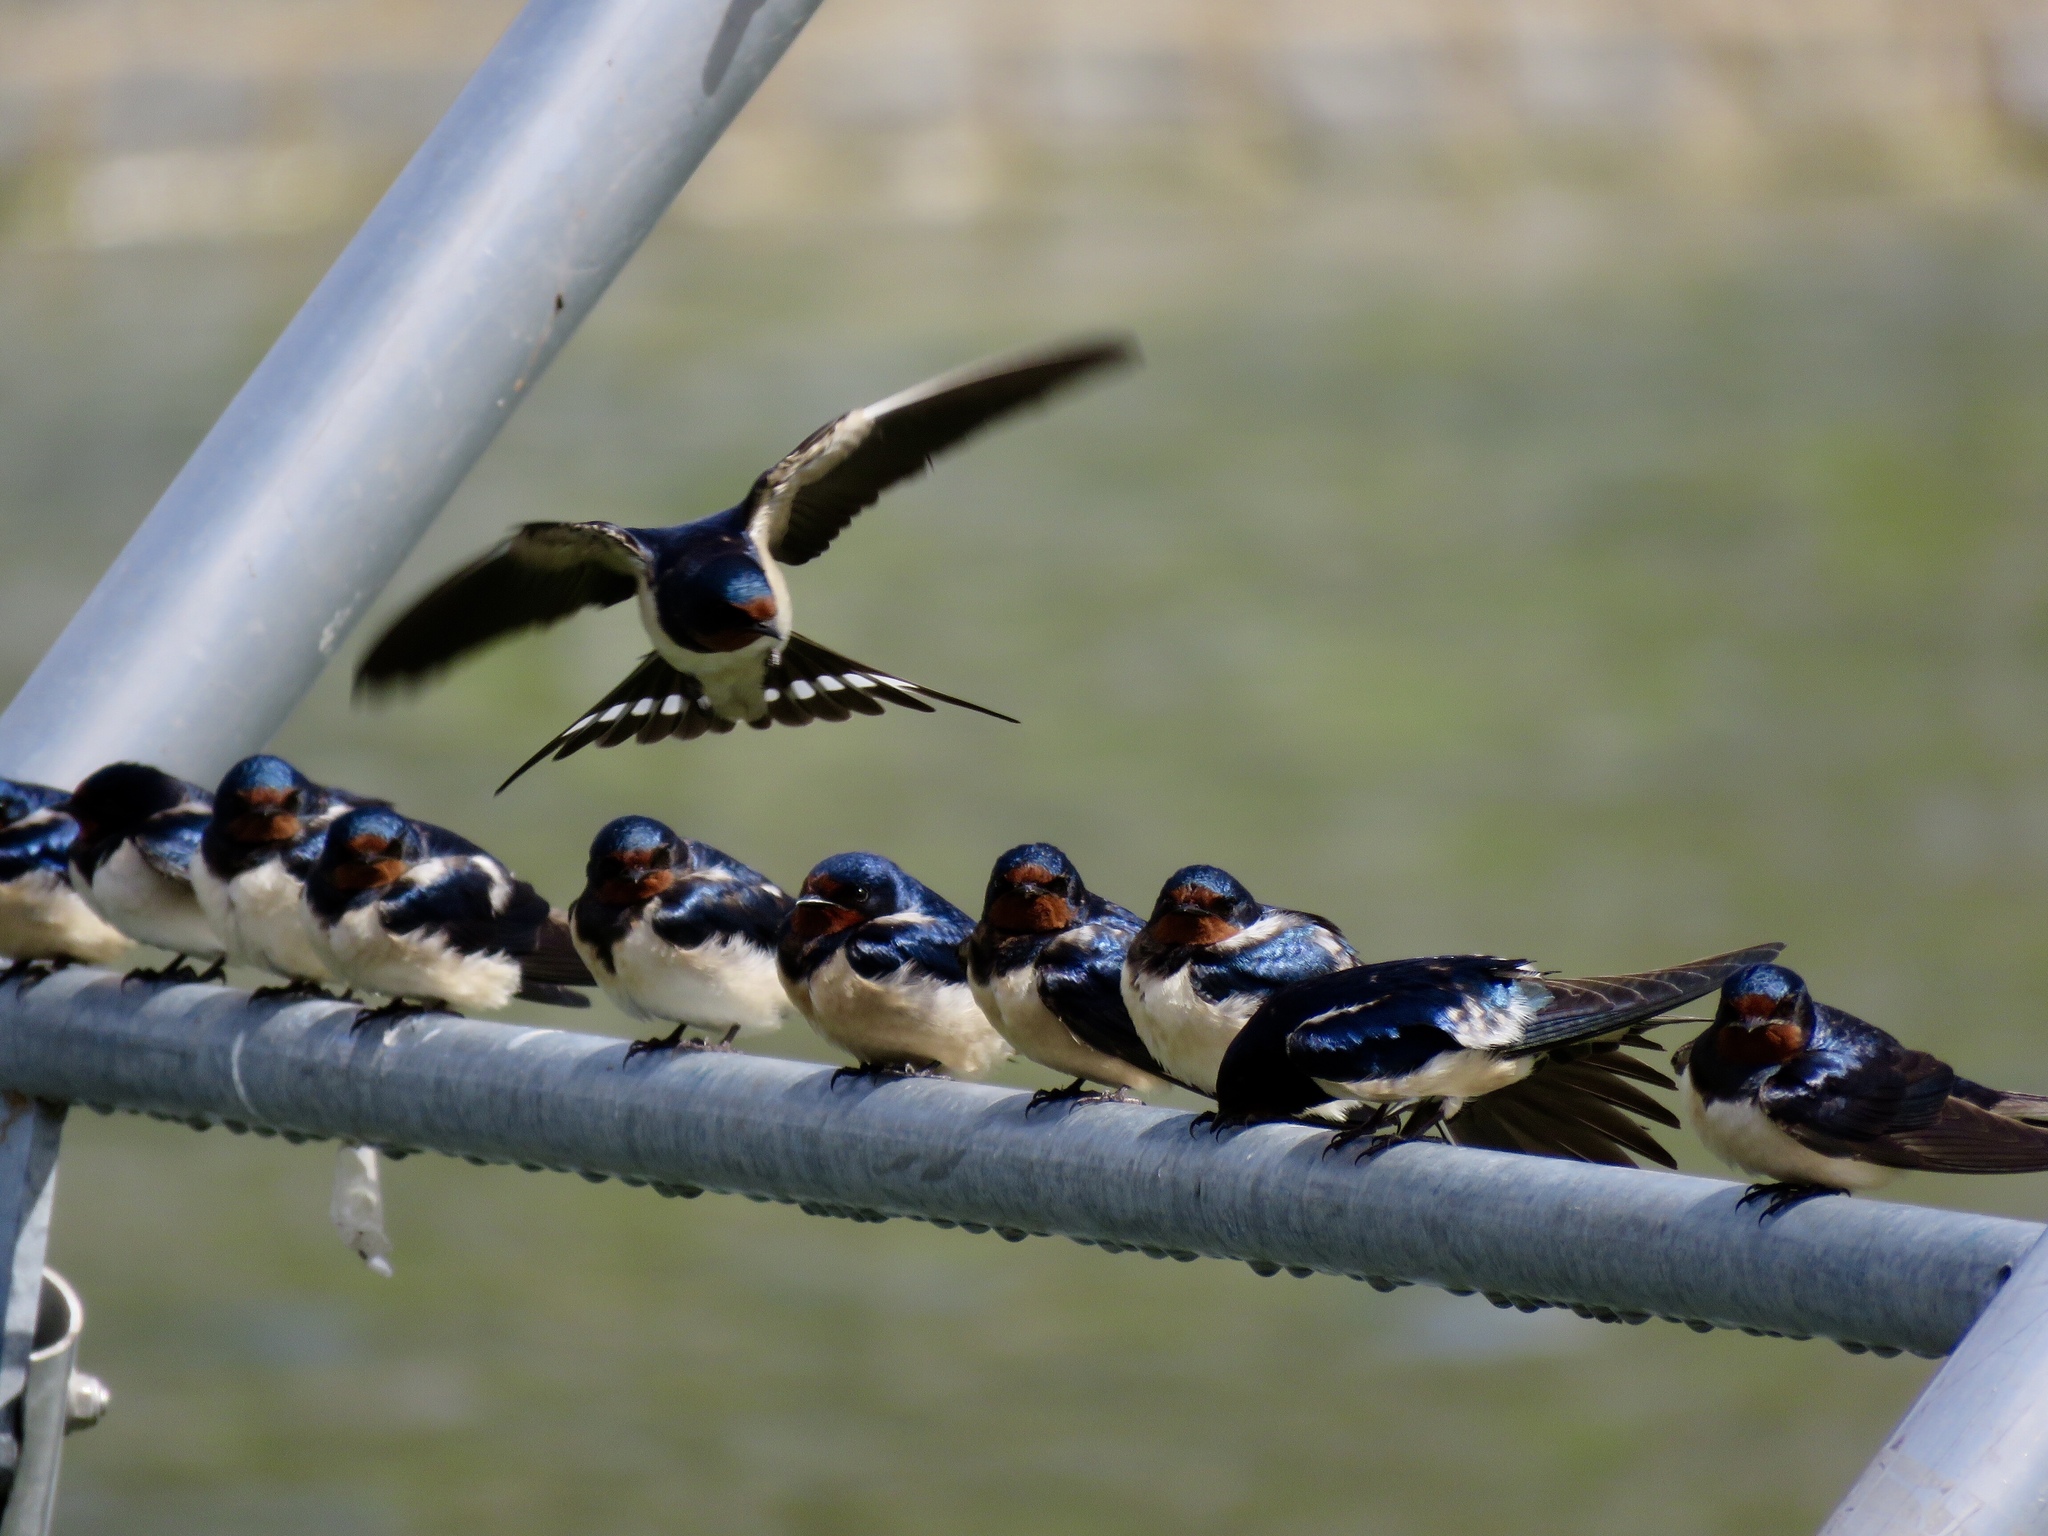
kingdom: Animalia
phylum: Chordata
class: Aves
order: Passeriformes
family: Hirundinidae
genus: Hirundo
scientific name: Hirundo rustica
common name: Barn swallow
